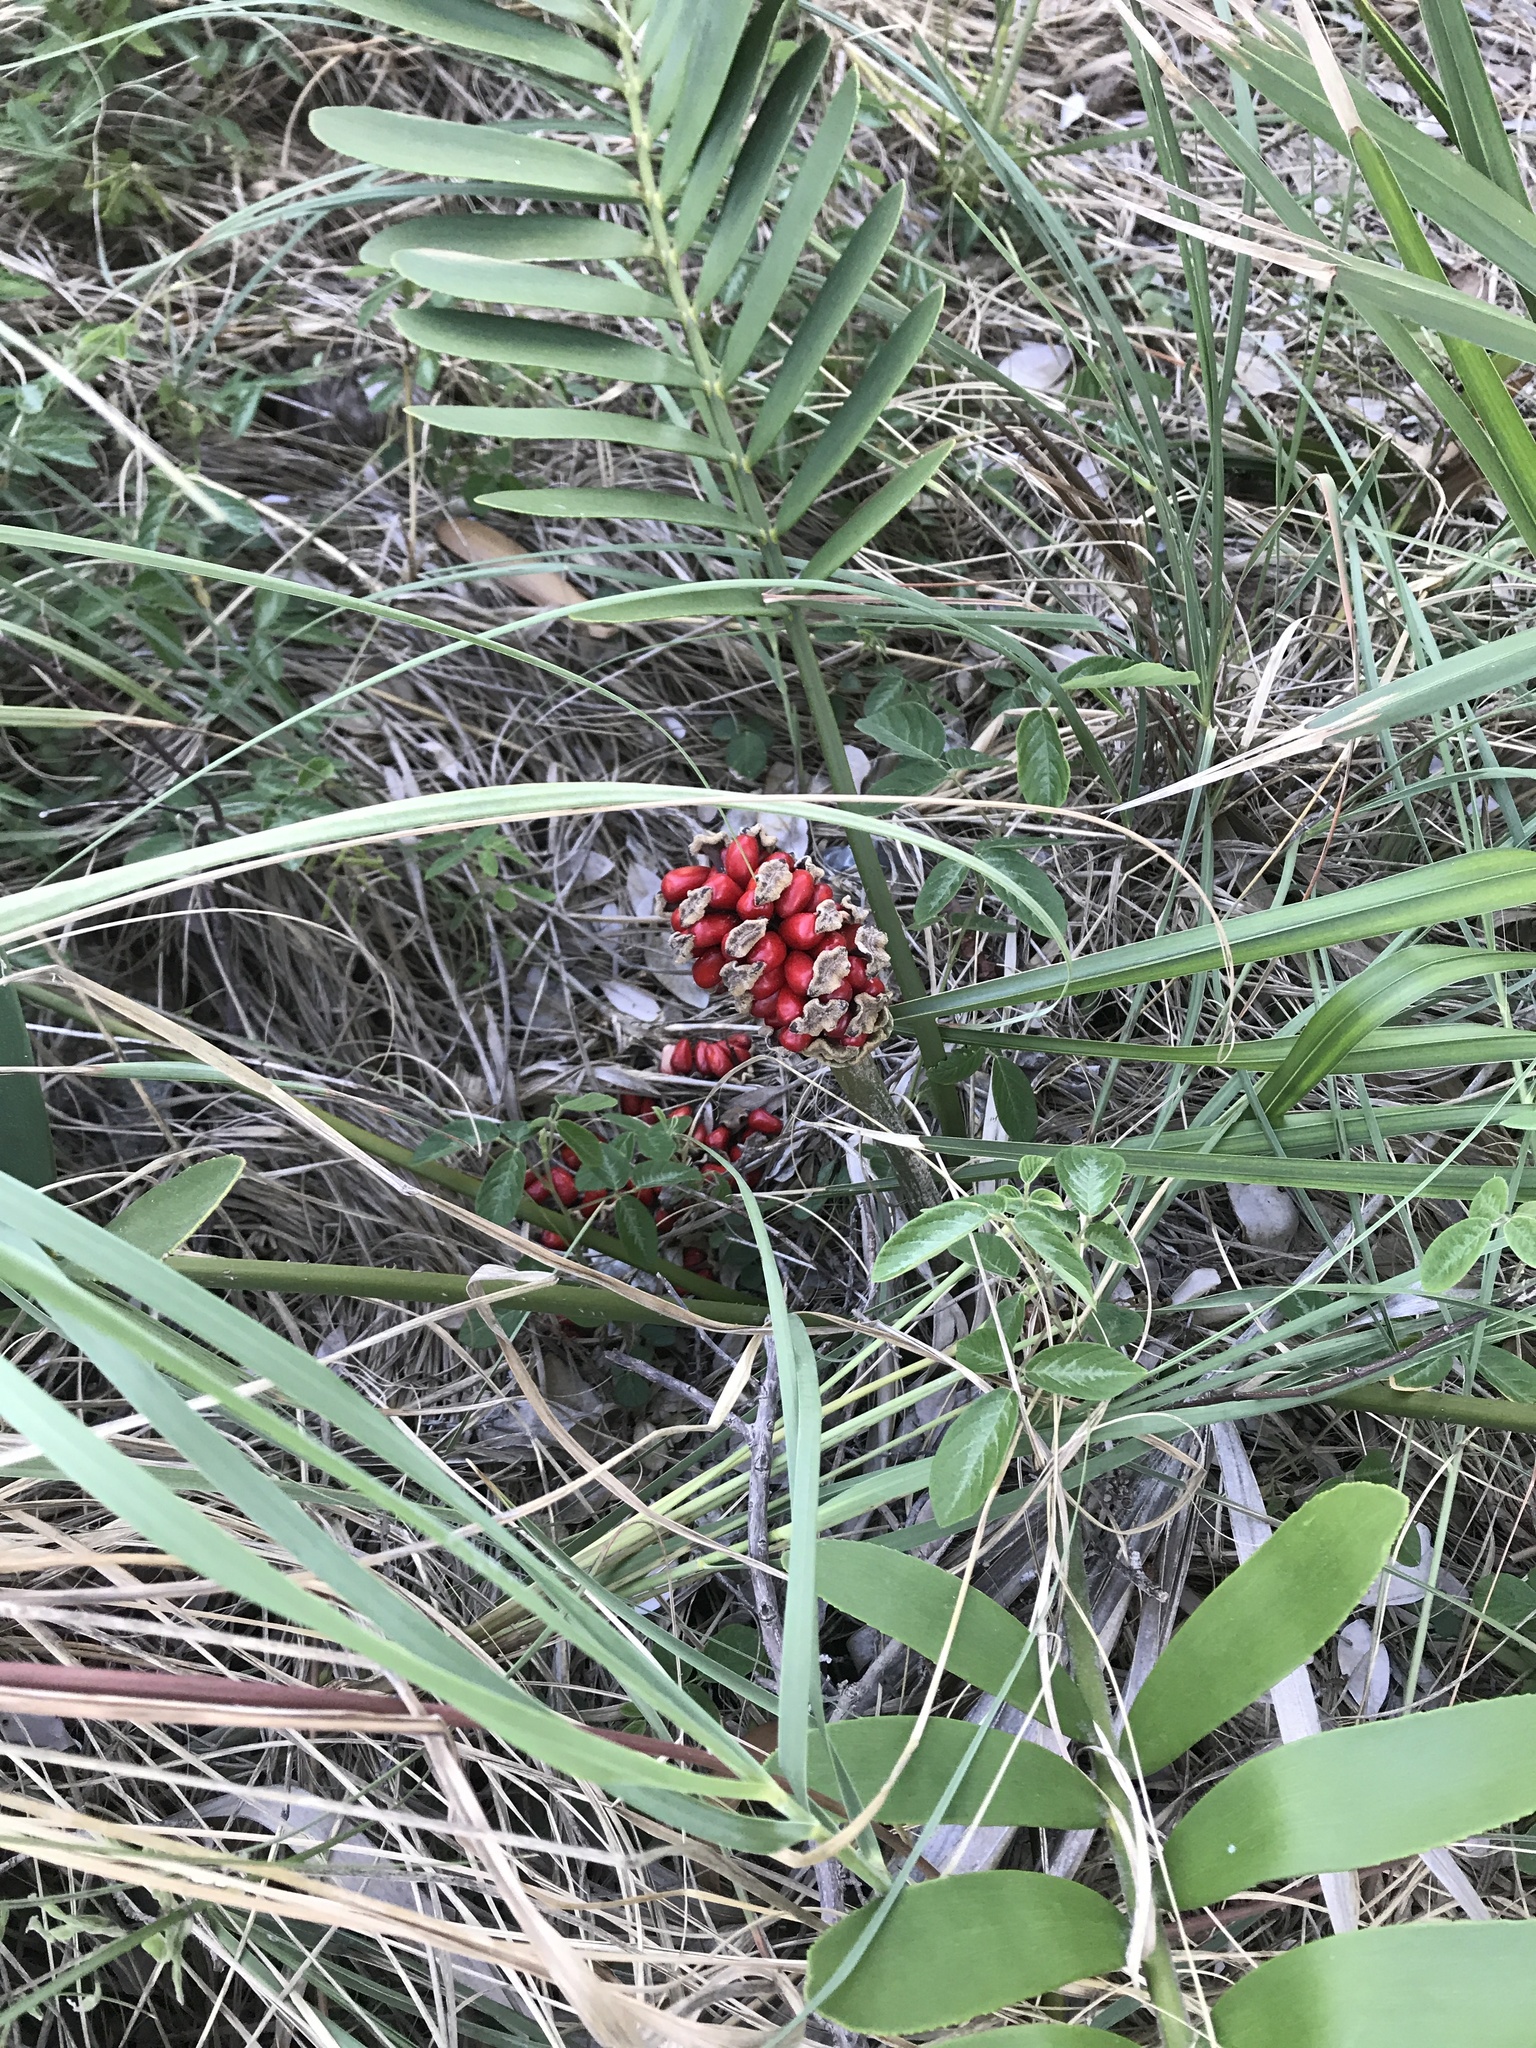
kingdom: Plantae
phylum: Tracheophyta
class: Cycadopsida
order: Cycadales
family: Zamiaceae
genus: Zamia
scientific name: Zamia furfuracea
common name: Cardboard palm
